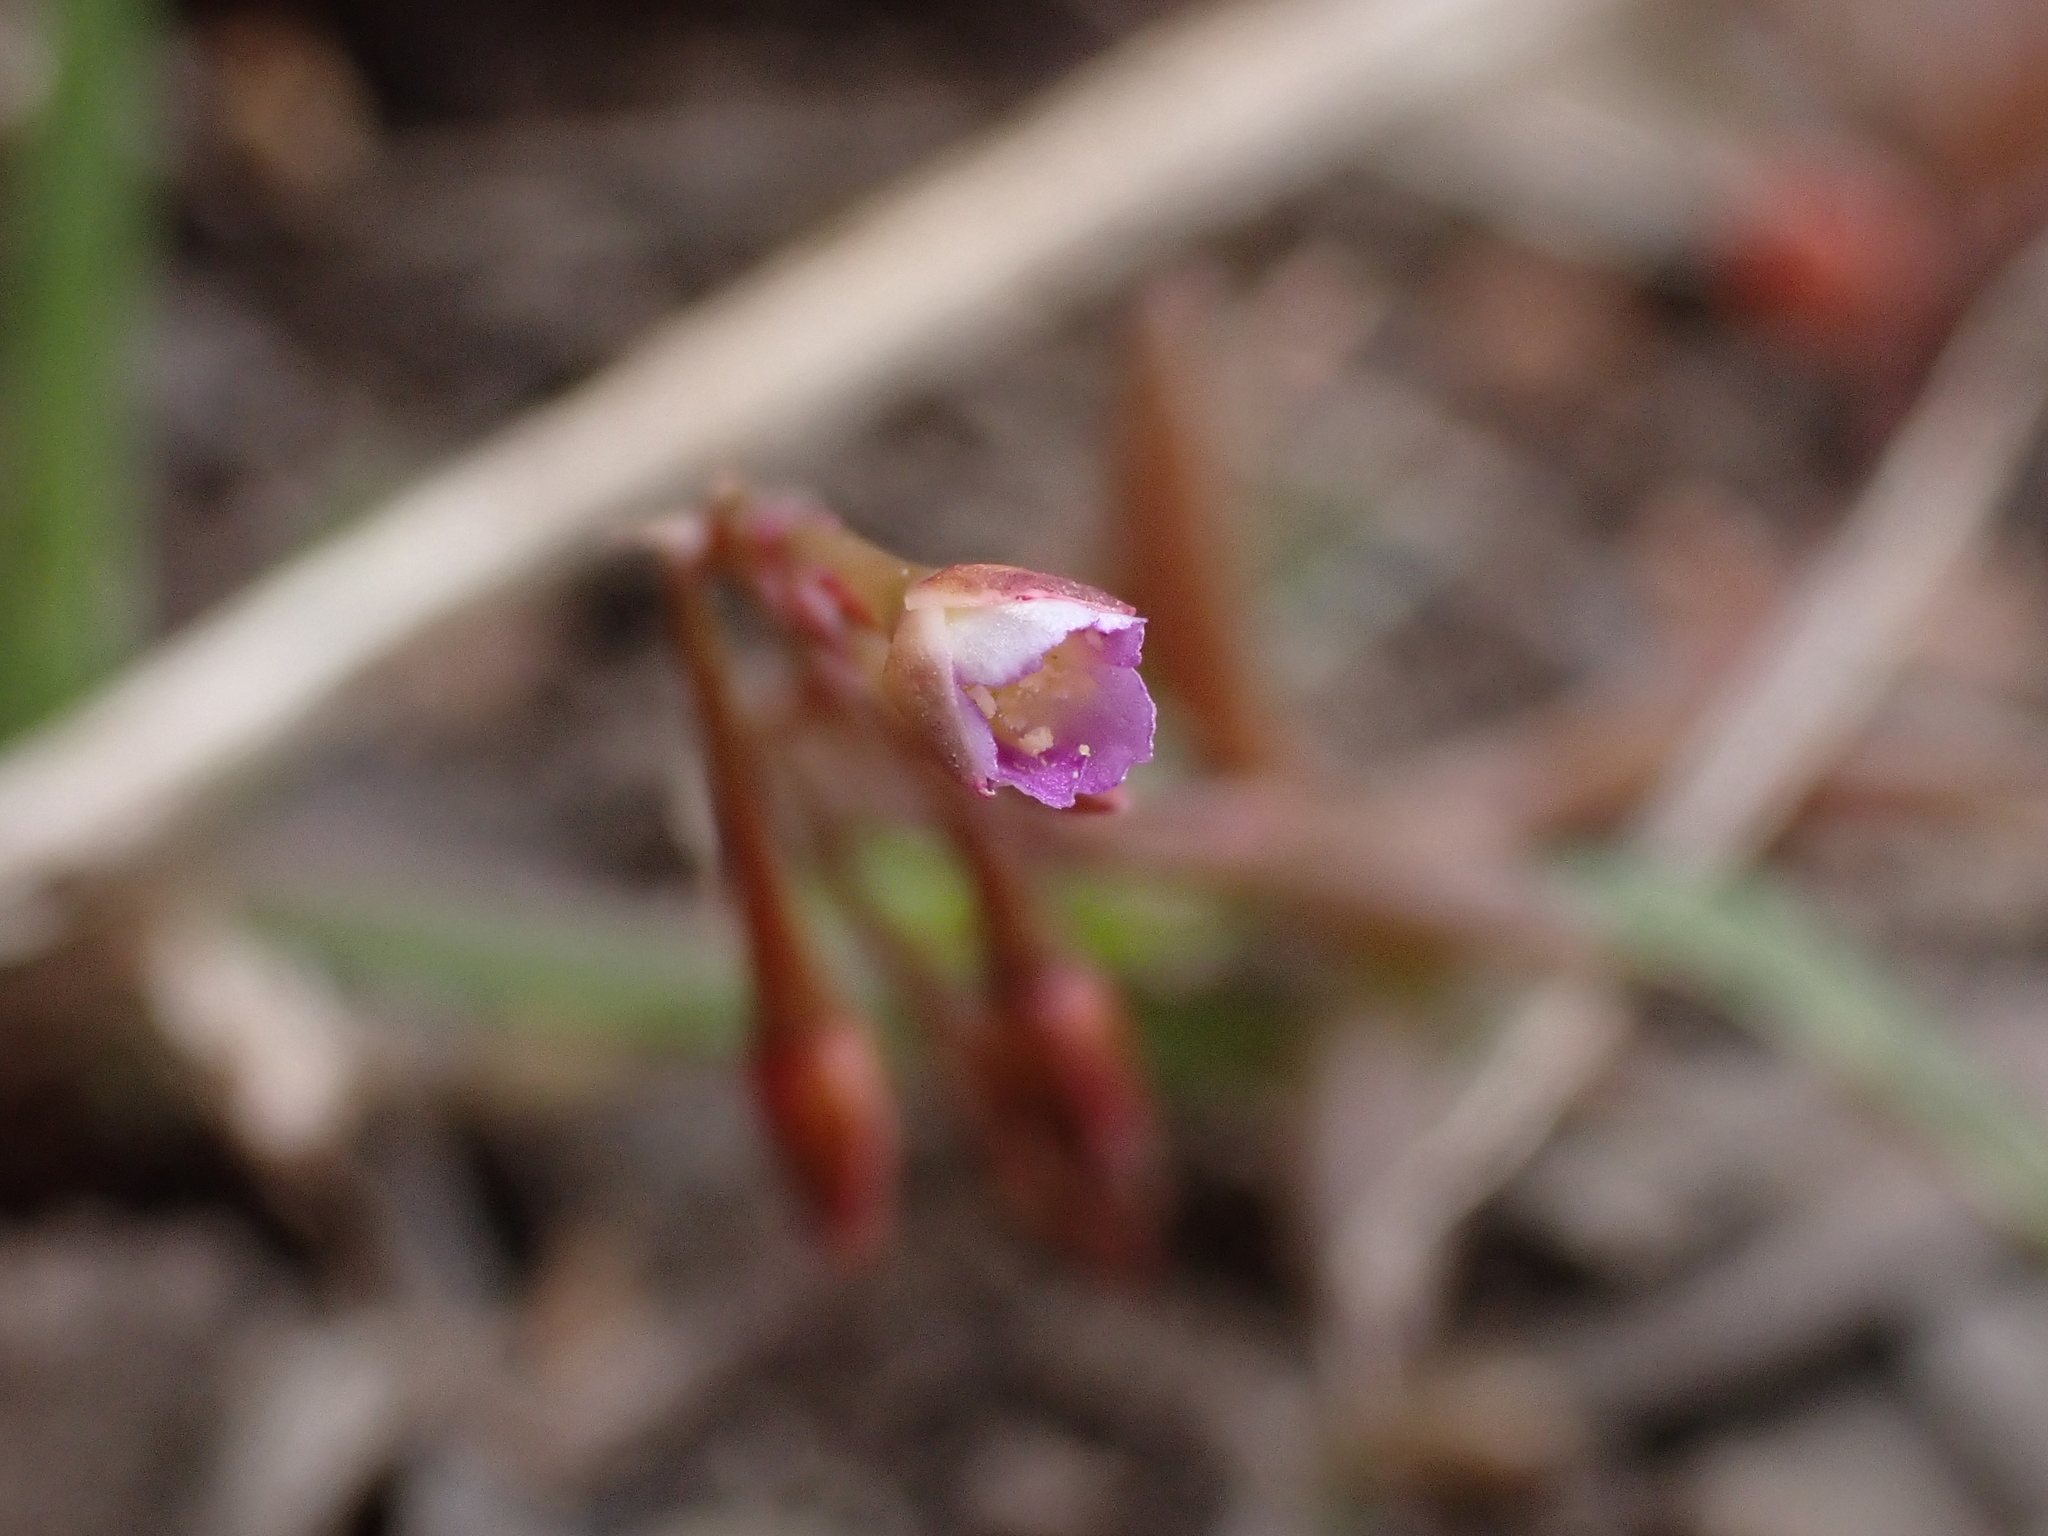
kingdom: Plantae
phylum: Tracheophyta
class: Magnoliopsida
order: Caryophyllales
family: Montiaceae
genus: Rumicastrum
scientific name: Rumicastrum calyptratum
